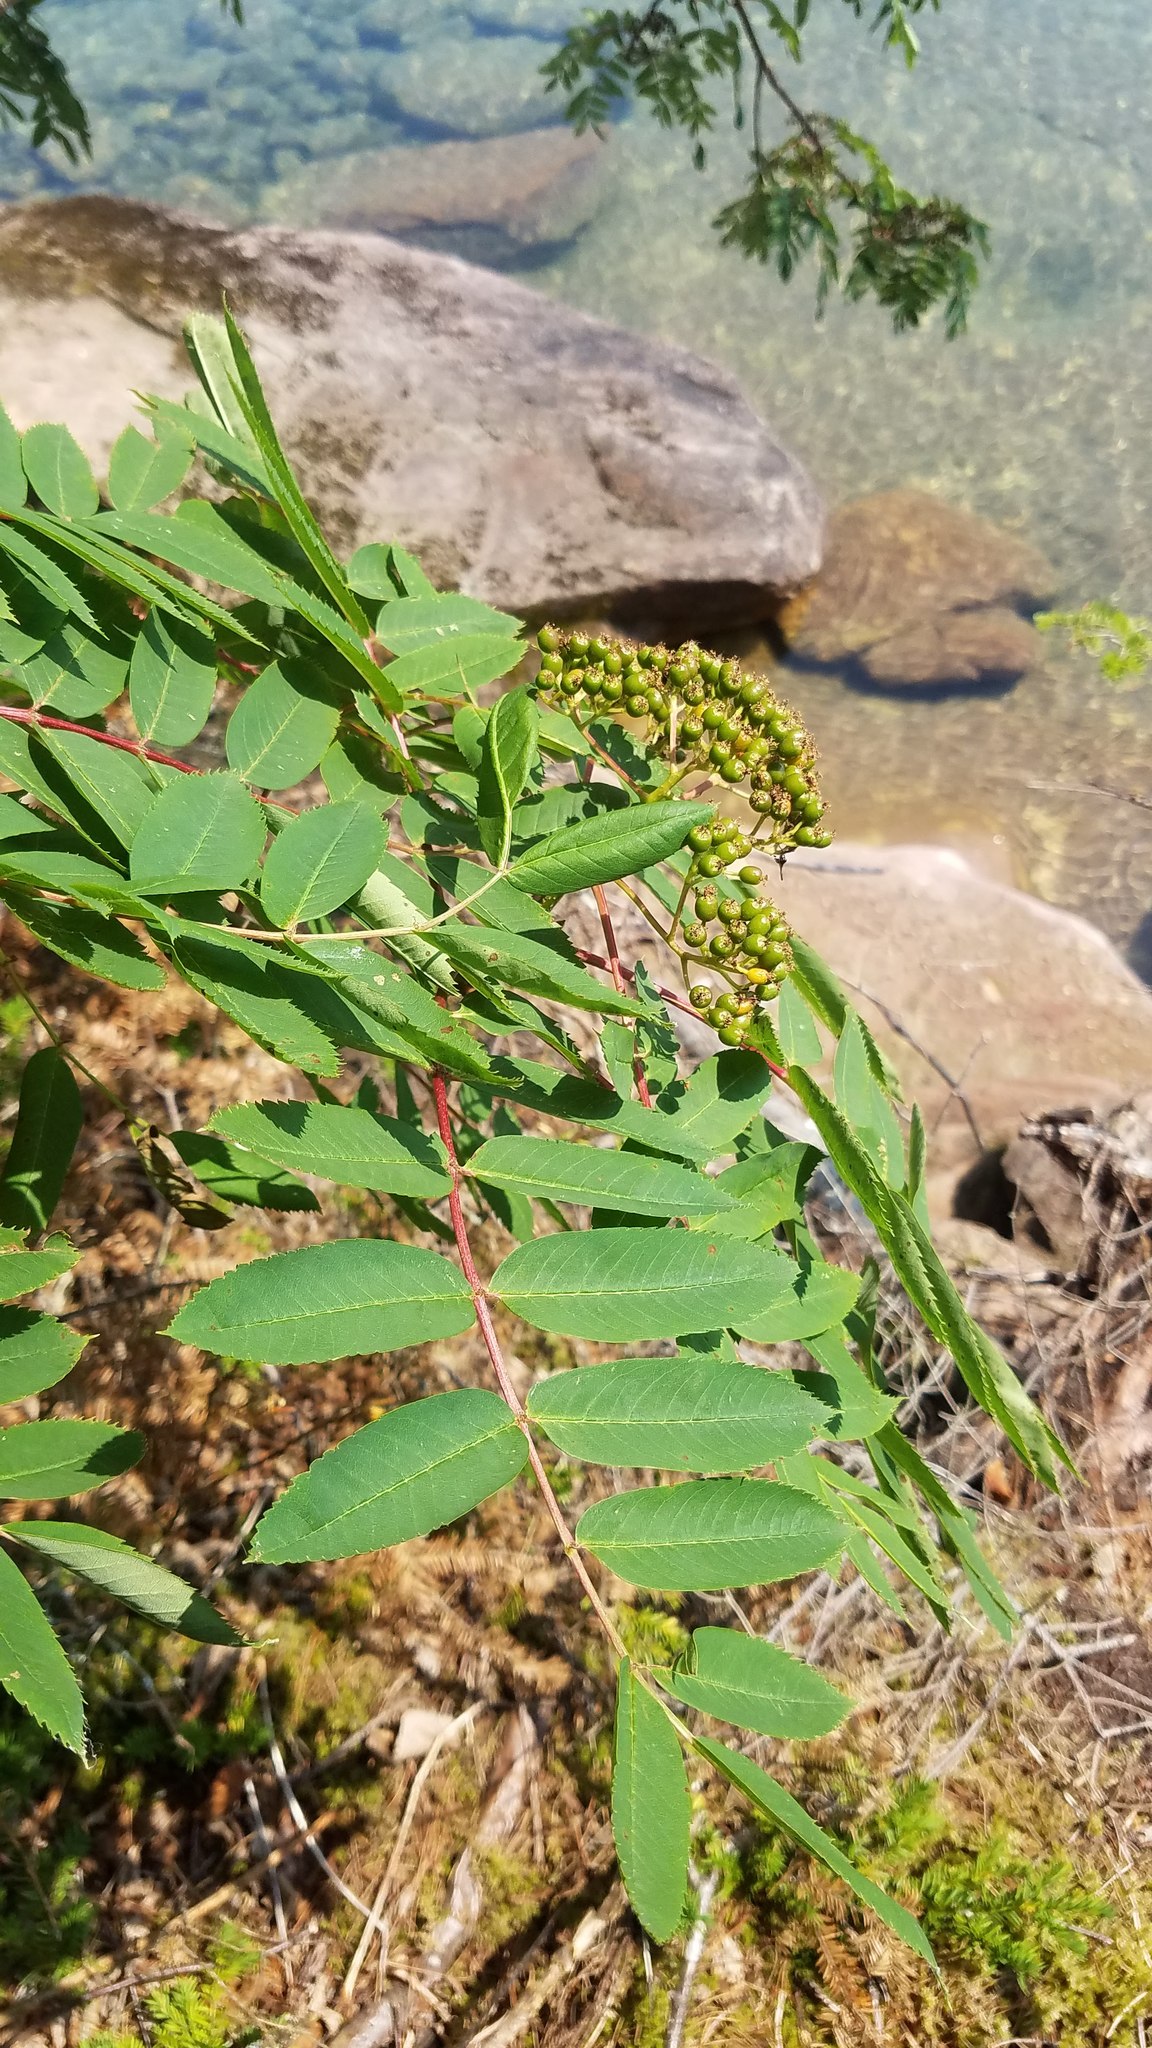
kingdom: Plantae
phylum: Tracheophyta
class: Magnoliopsida
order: Rosales
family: Rosaceae
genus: Sorbus
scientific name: Sorbus decora
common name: Northern mountain-ash
